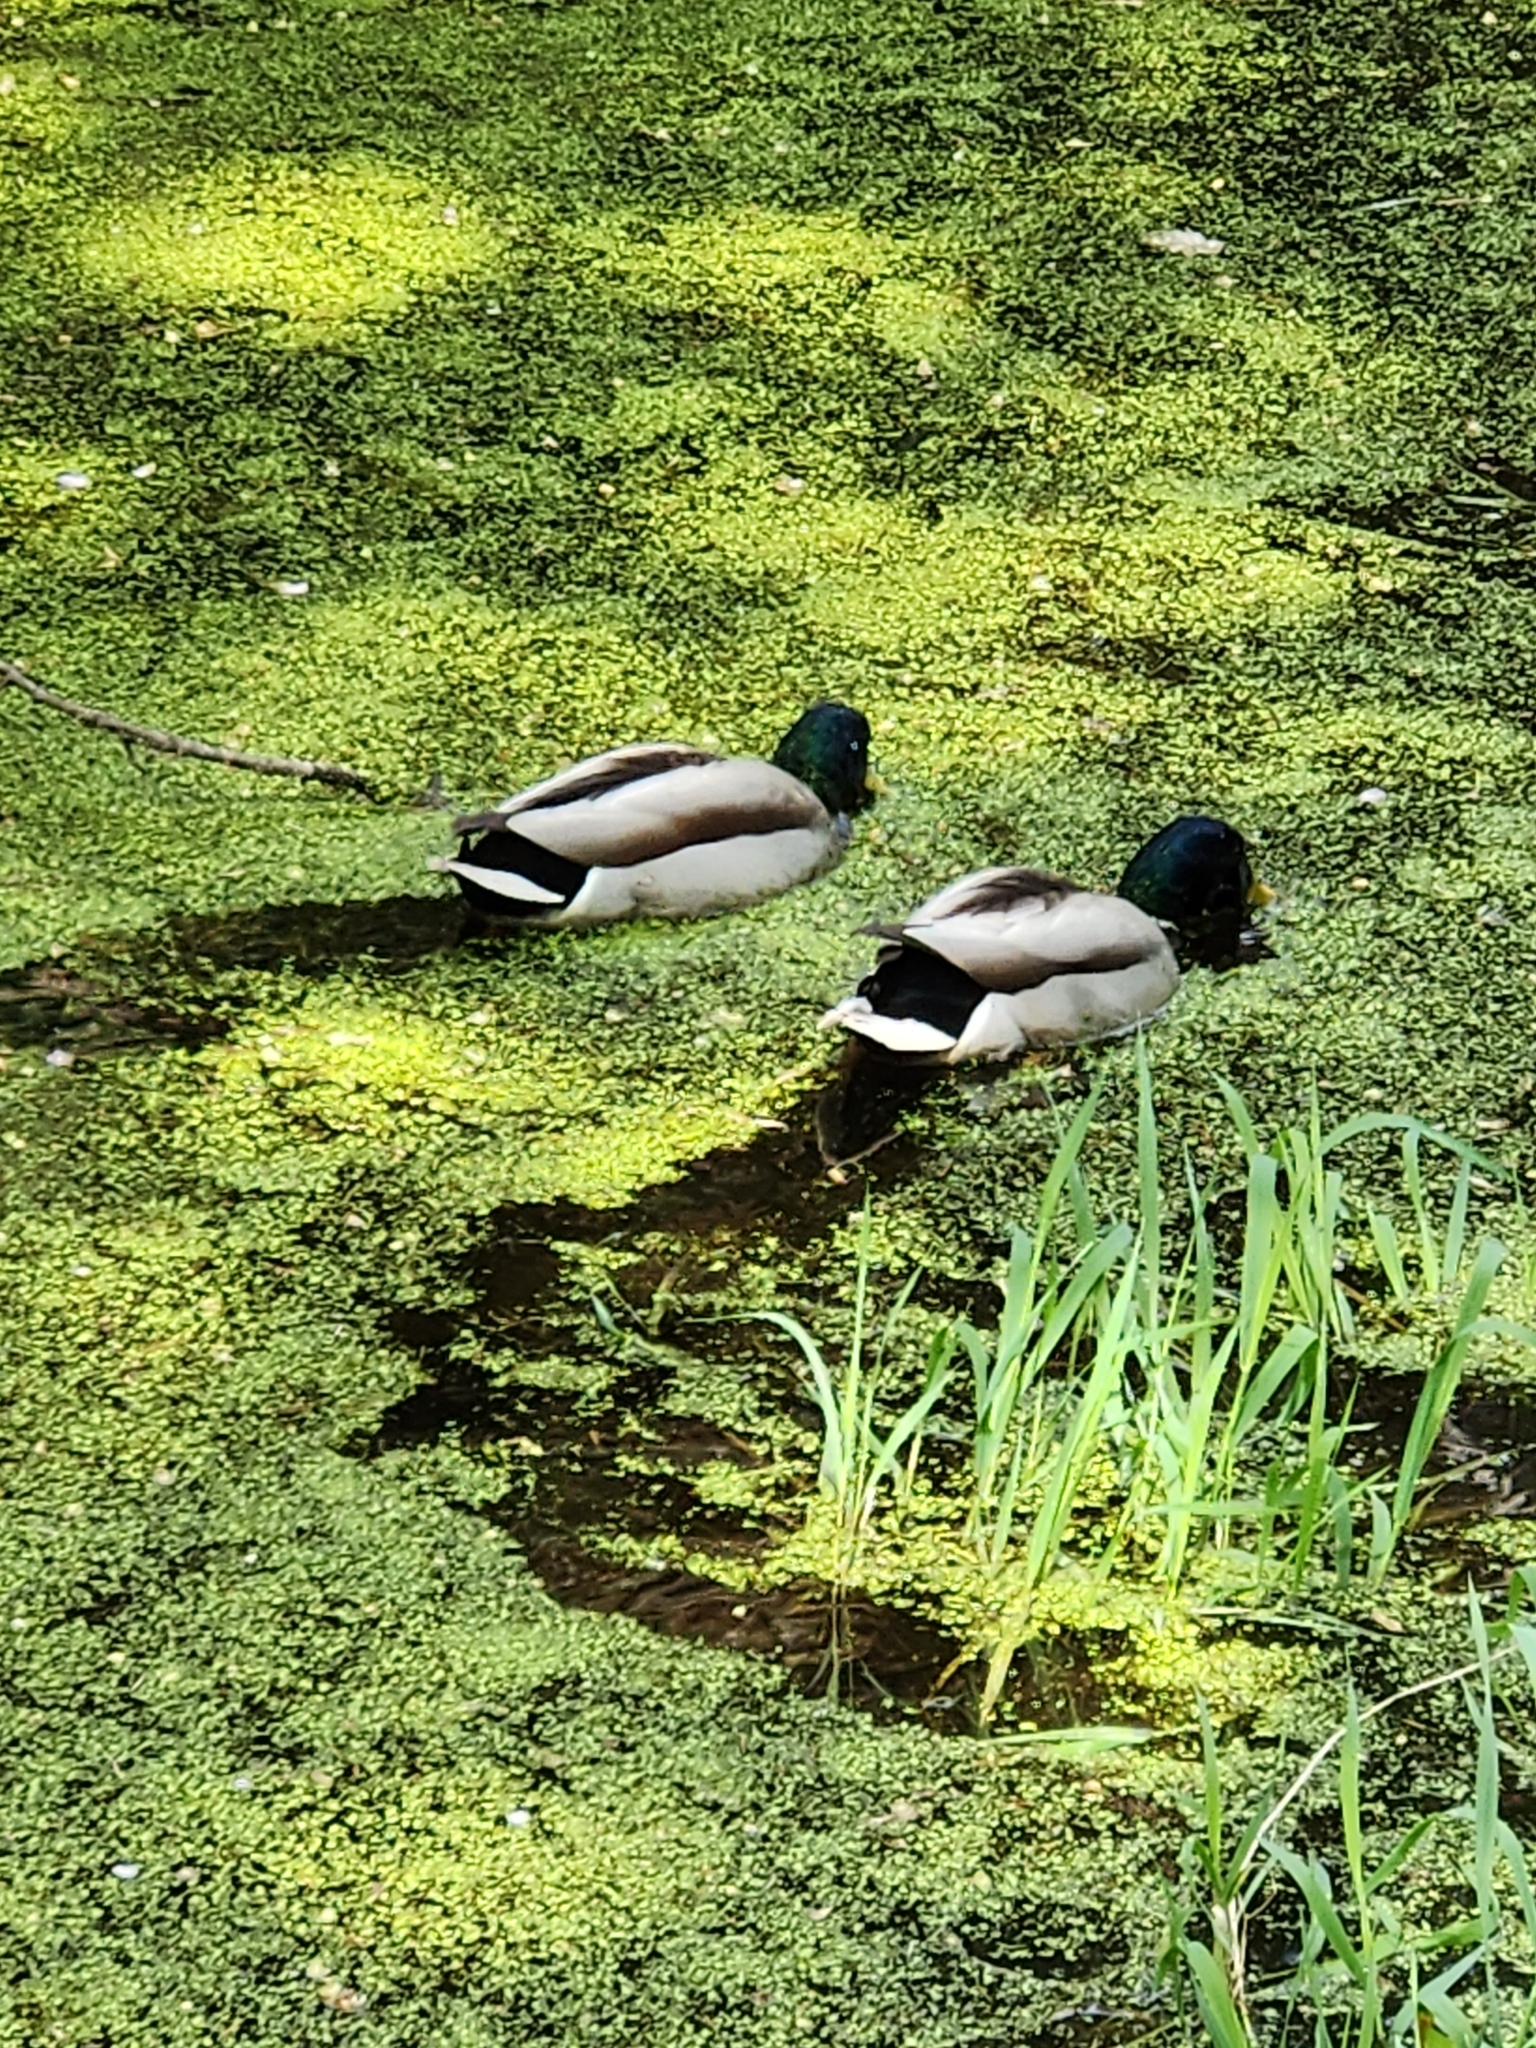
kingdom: Animalia
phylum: Chordata
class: Aves
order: Anseriformes
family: Anatidae
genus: Anas
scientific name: Anas platyrhynchos
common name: Mallard
